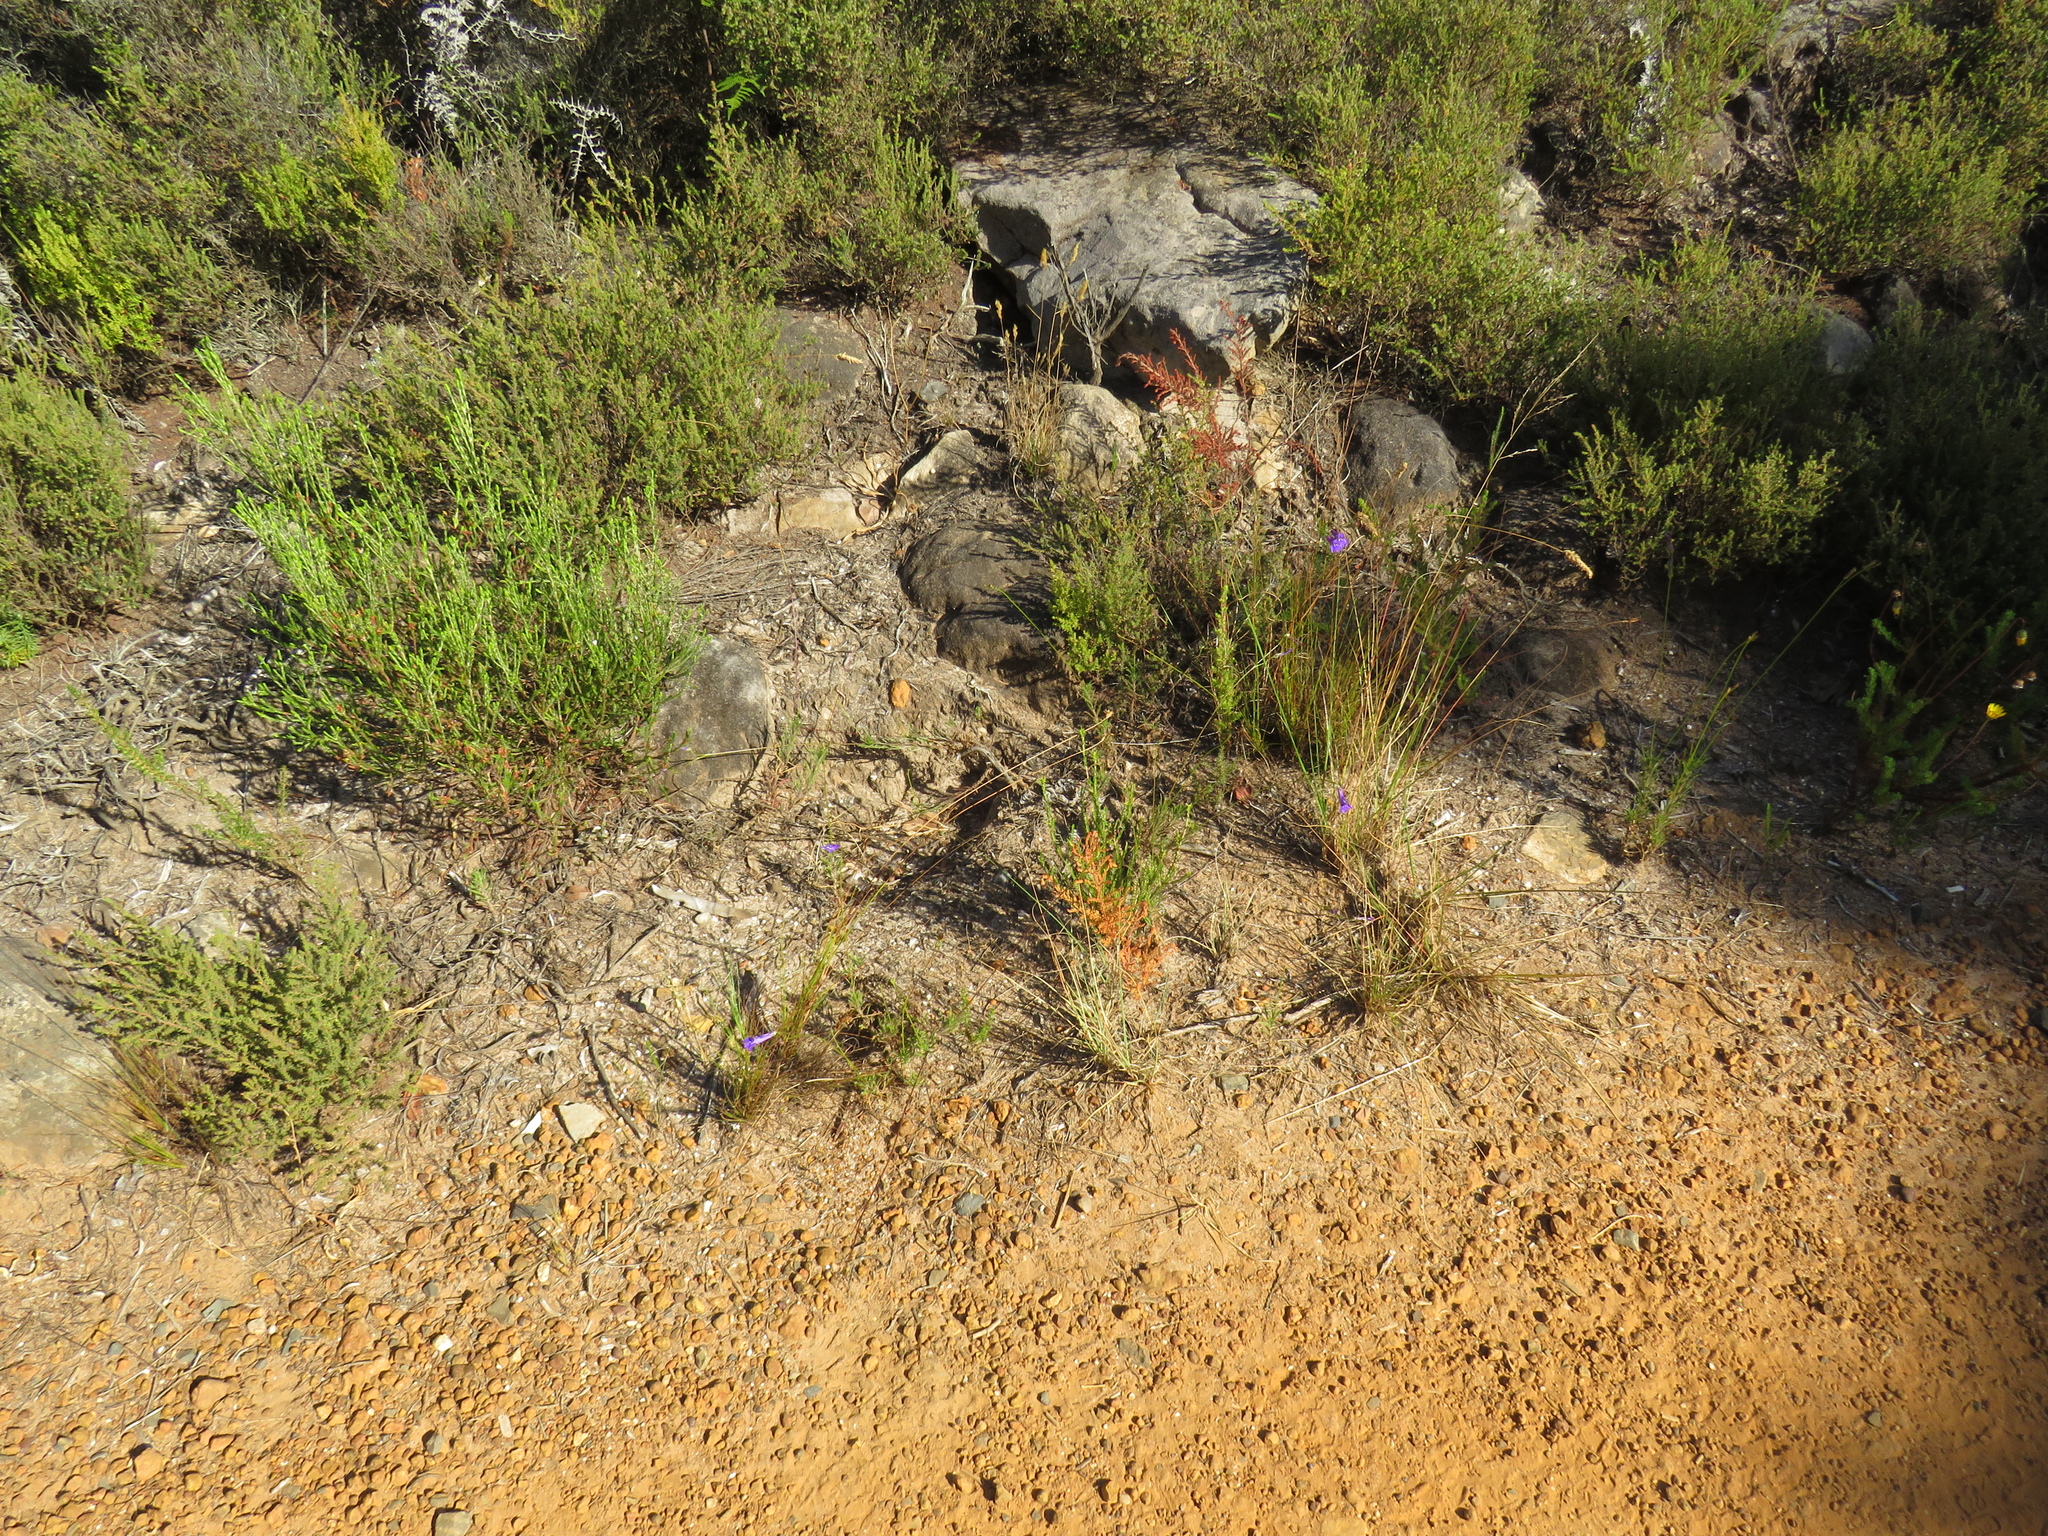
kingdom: Plantae
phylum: Tracheophyta
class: Magnoliopsida
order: Asterales
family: Campanulaceae
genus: Lobelia
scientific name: Lobelia coronopifolia
